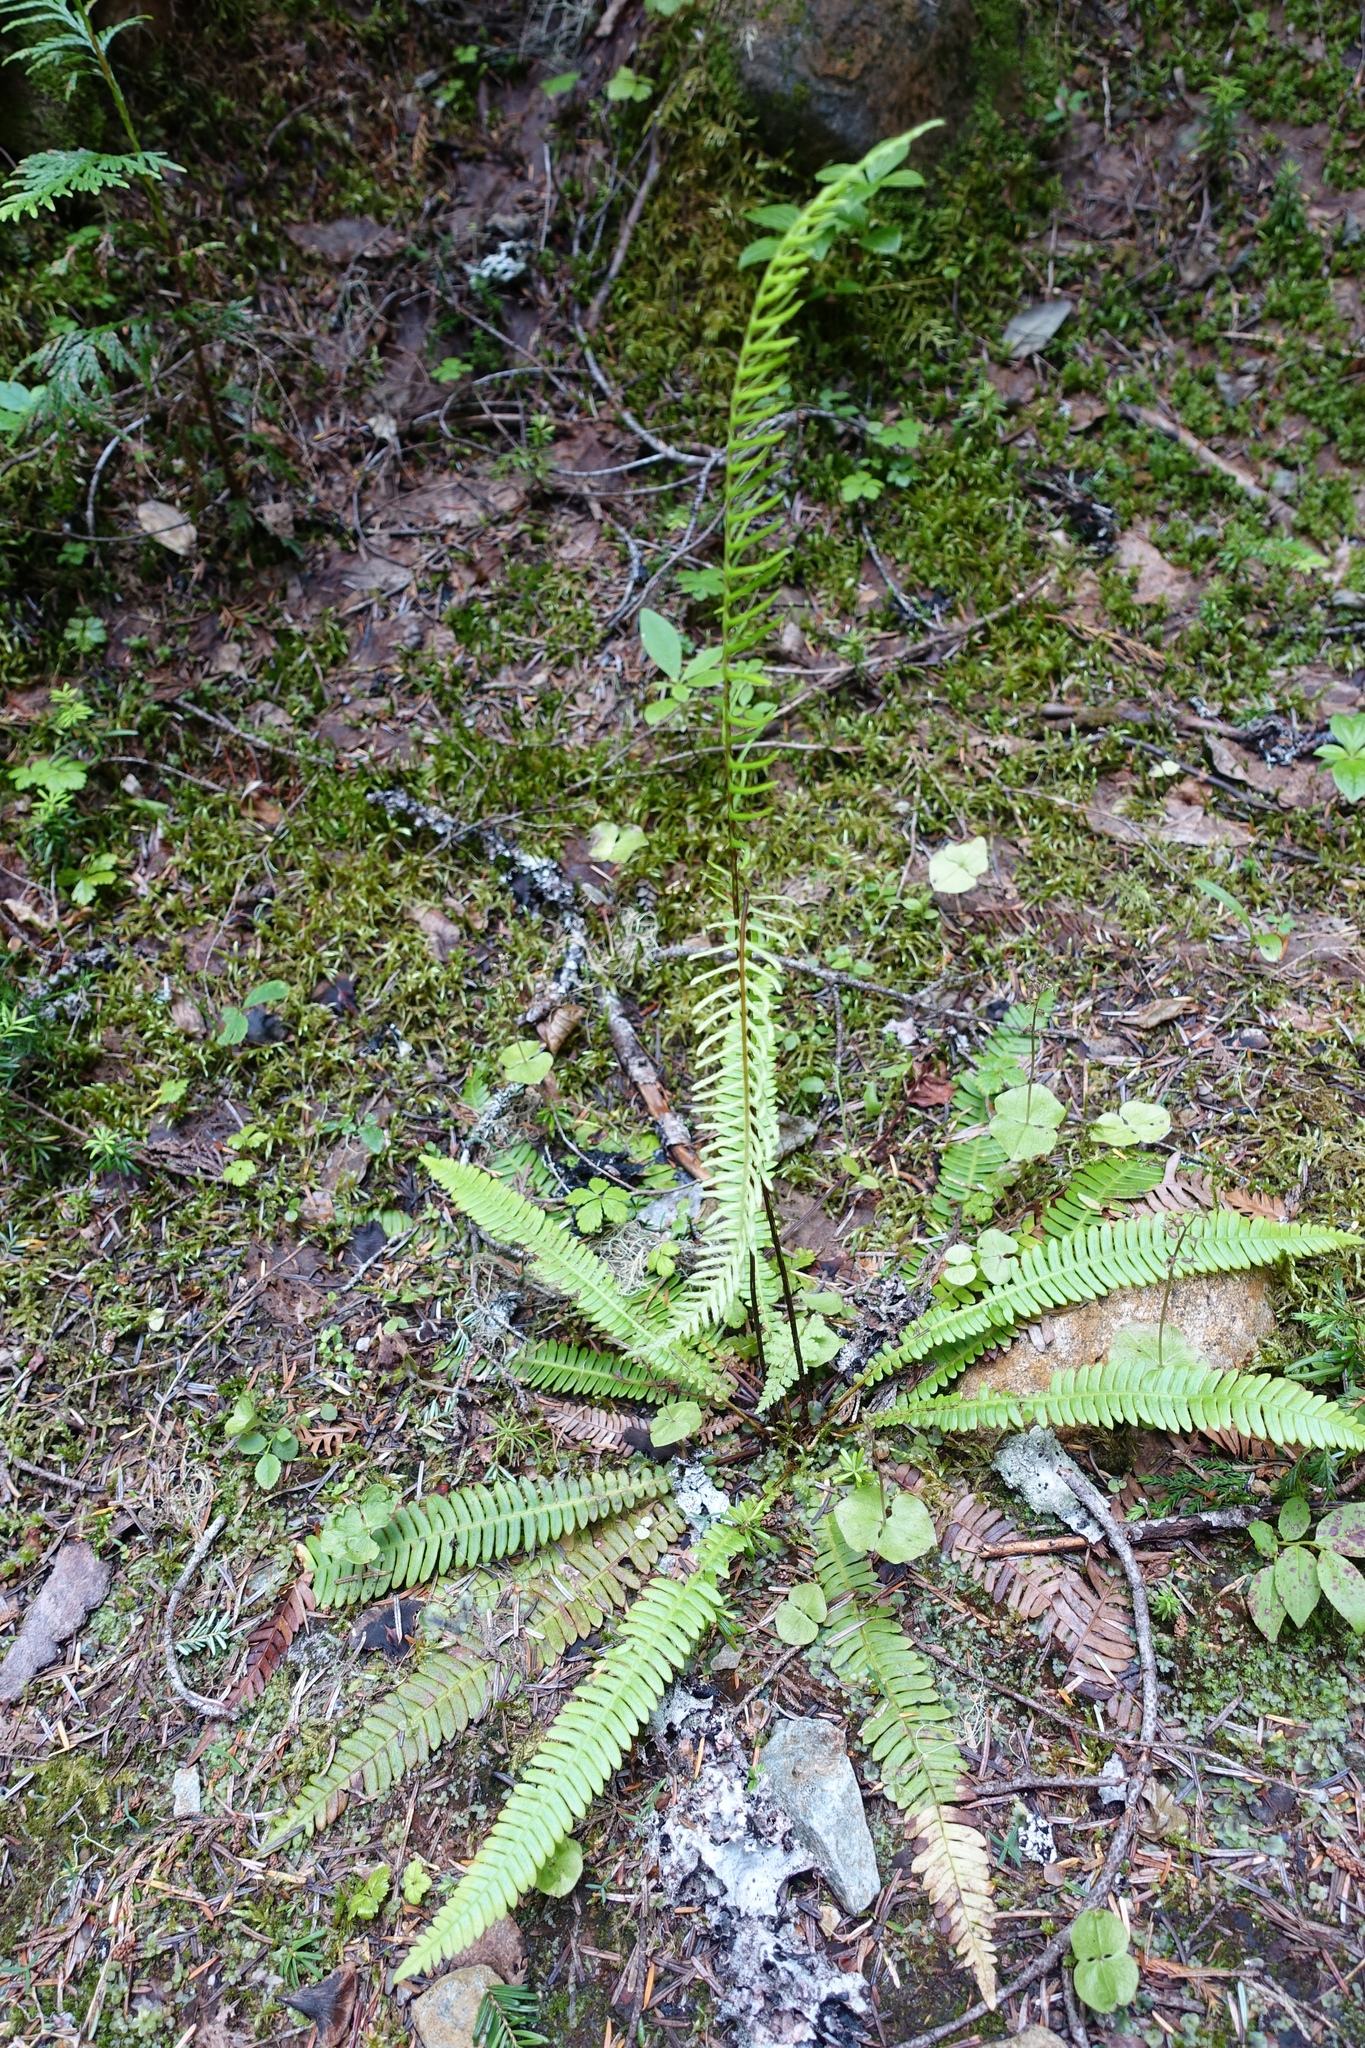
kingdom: Plantae
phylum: Tracheophyta
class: Polypodiopsida
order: Polypodiales
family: Blechnaceae
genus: Struthiopteris
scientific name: Struthiopteris spicant
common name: Deer fern
